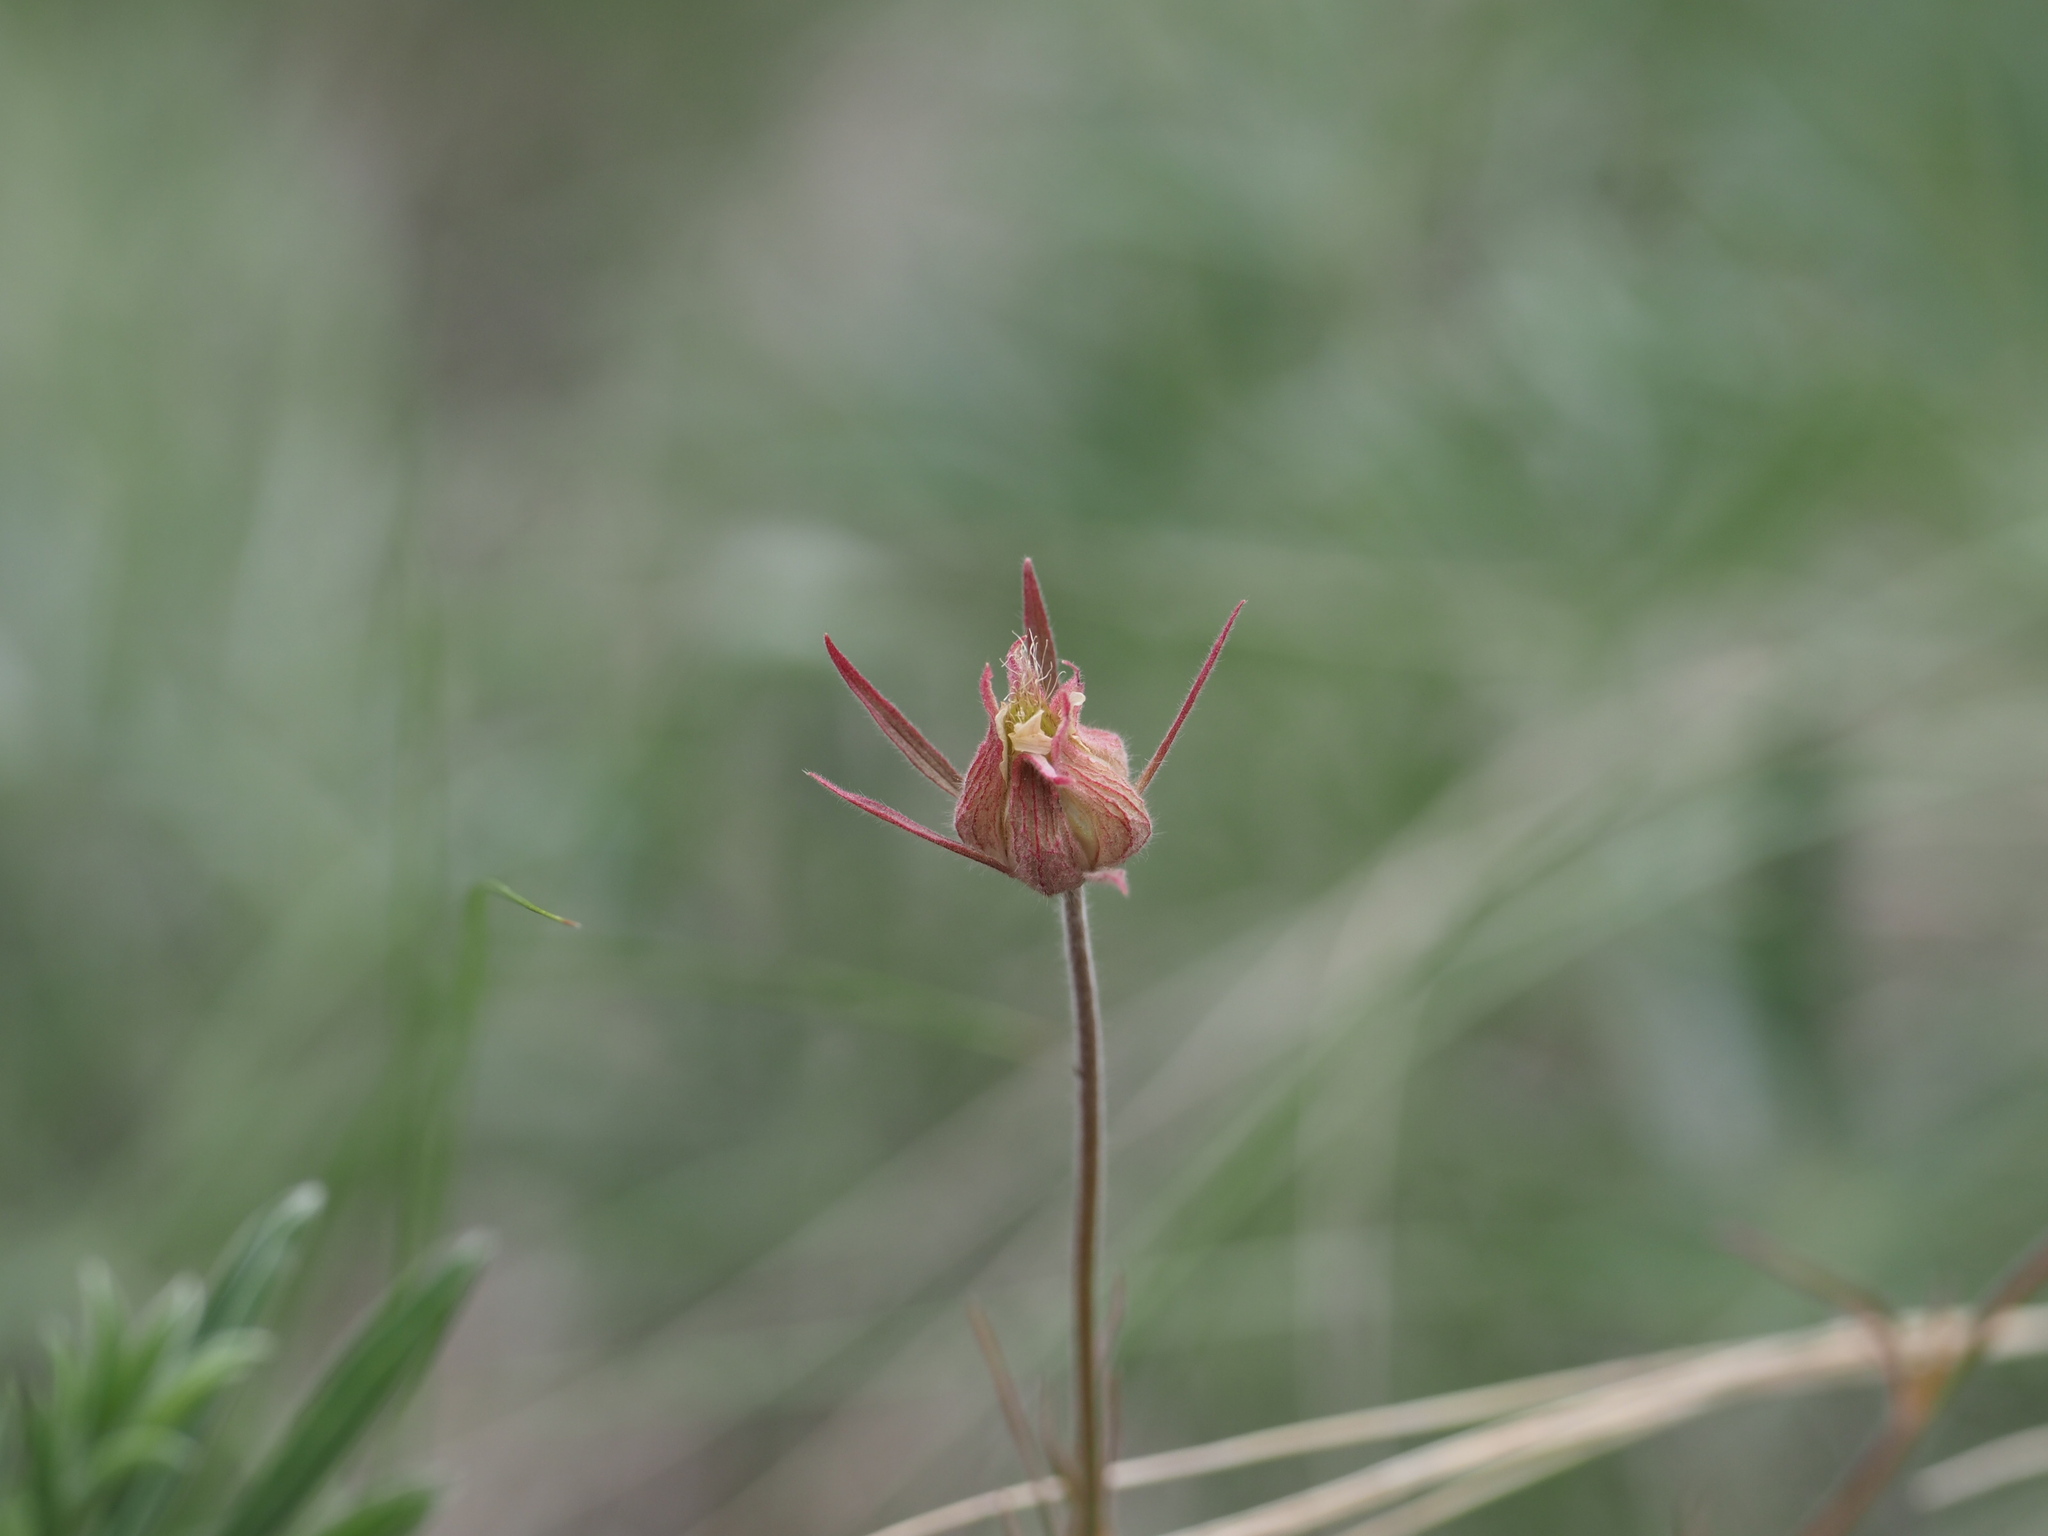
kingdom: Plantae
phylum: Tracheophyta
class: Magnoliopsida
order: Rosales
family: Rosaceae
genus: Geum
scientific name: Geum triflorum
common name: Old man's whiskers
